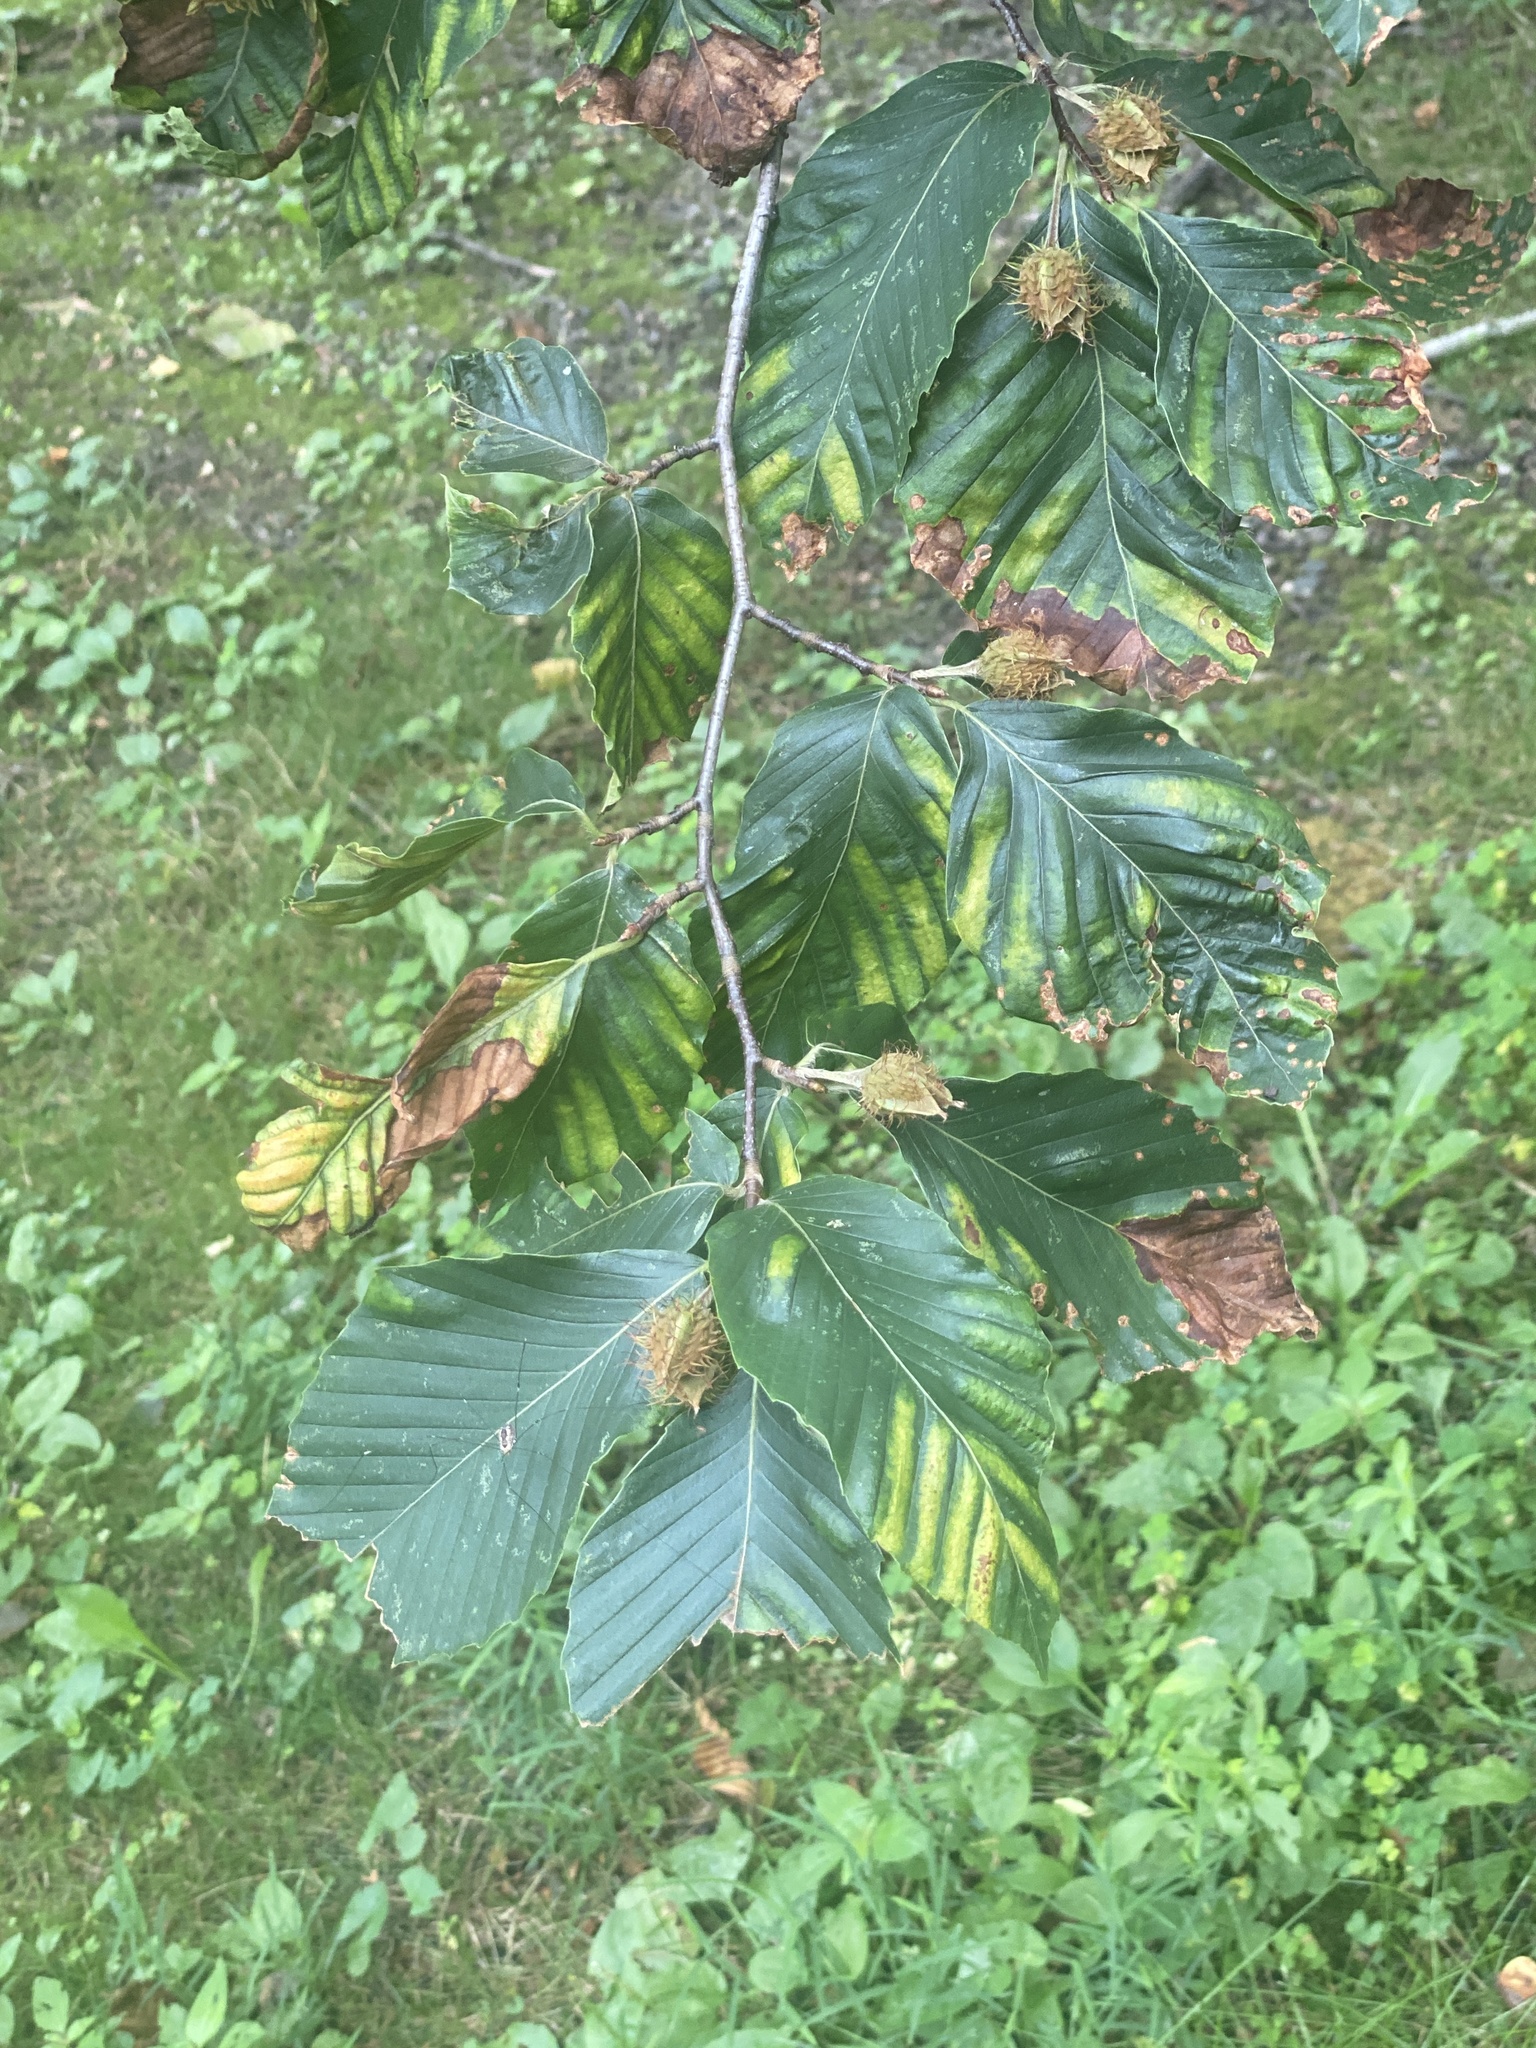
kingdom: Plantae
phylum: Tracheophyta
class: Magnoliopsida
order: Fagales
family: Fagaceae
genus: Fagus
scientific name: Fagus grandifolia
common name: American beech
